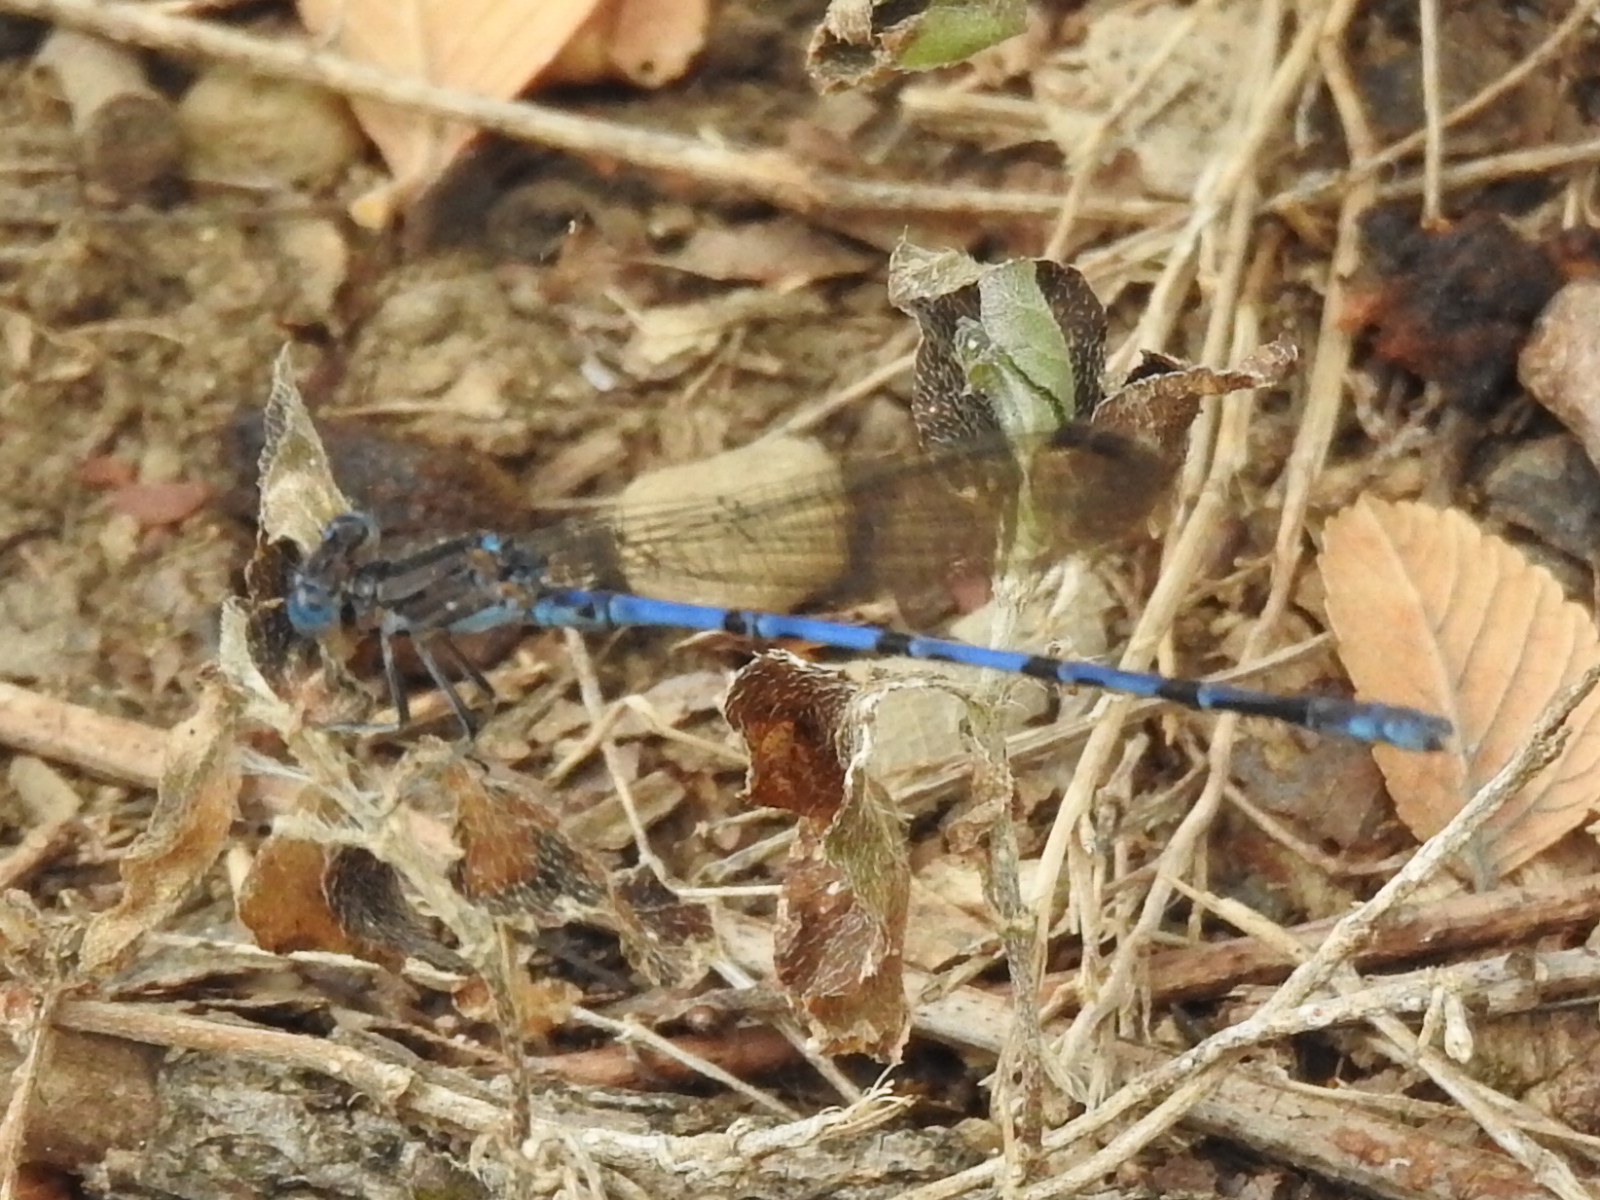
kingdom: Animalia
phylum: Arthropoda
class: Insecta
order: Odonata
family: Coenagrionidae
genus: Argia
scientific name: Argia funebris
